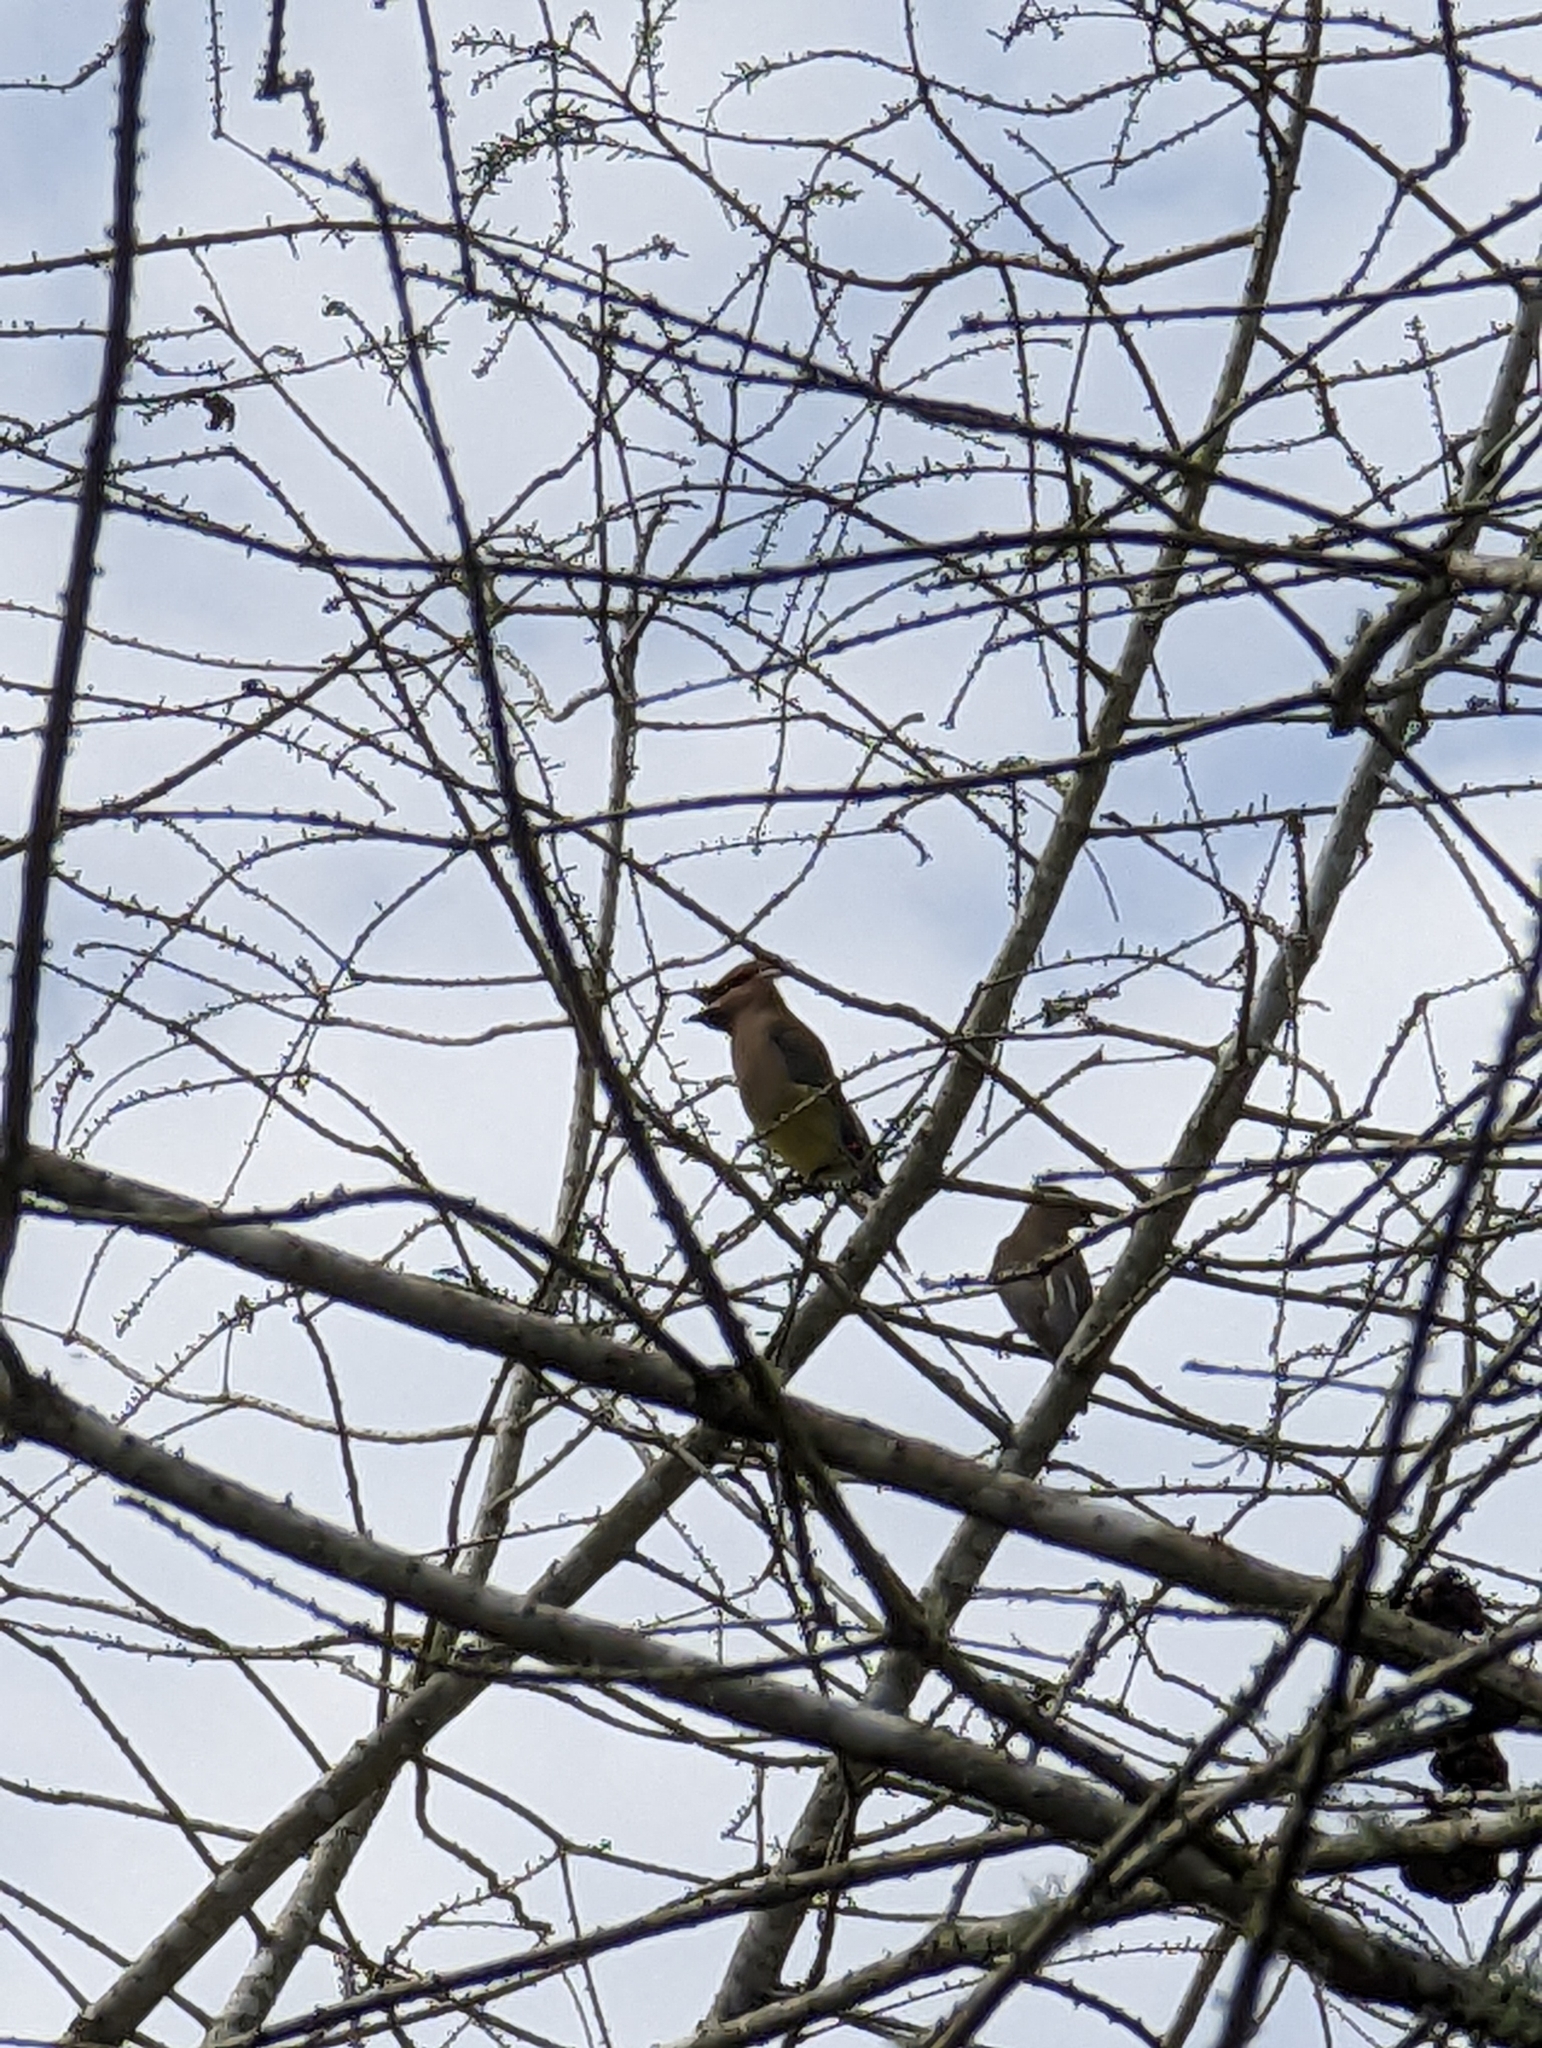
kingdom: Animalia
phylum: Chordata
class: Aves
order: Passeriformes
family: Bombycillidae
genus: Bombycilla
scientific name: Bombycilla cedrorum
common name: Cedar waxwing
